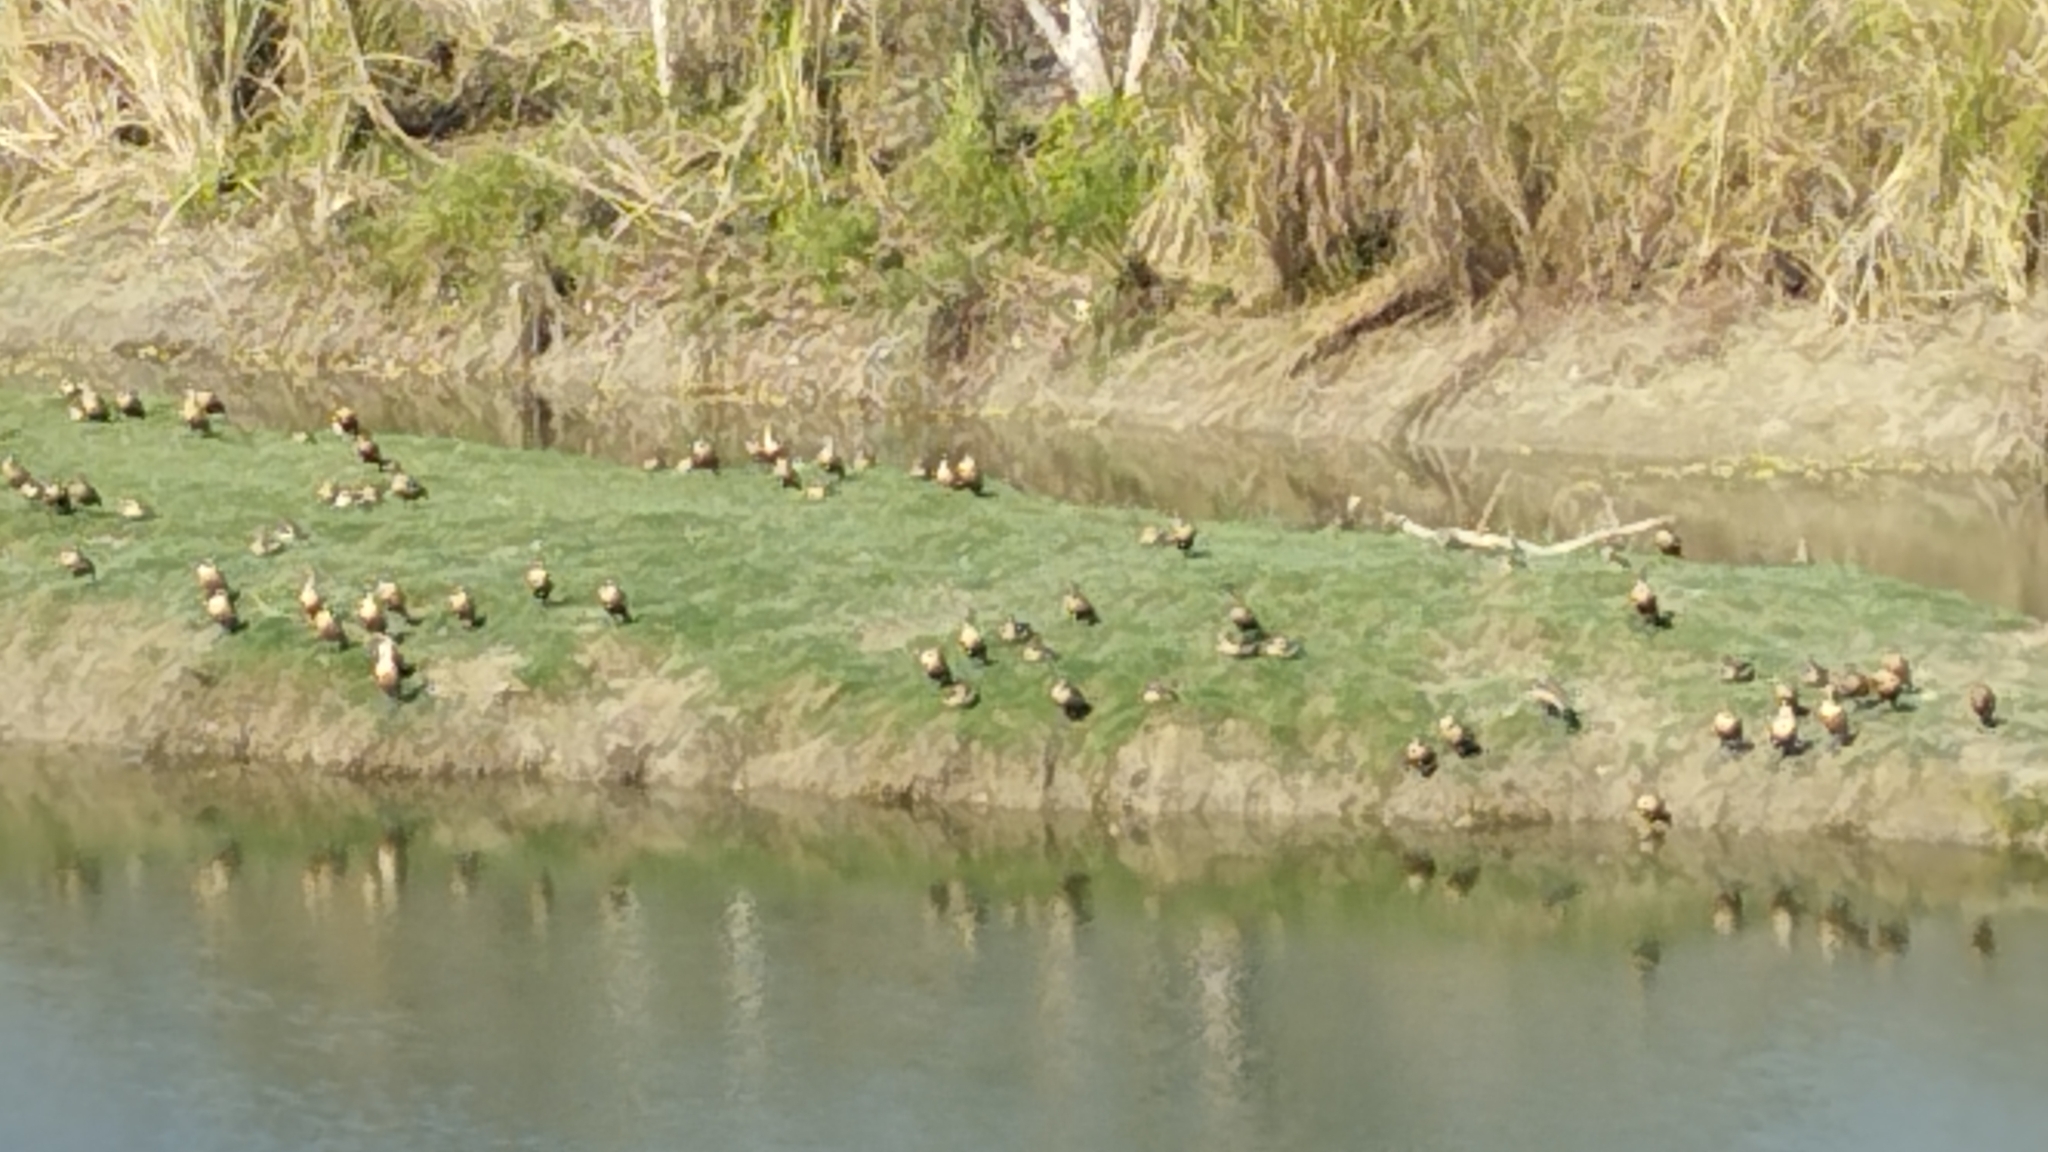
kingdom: Animalia
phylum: Chordata
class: Aves
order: Anseriformes
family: Anatidae
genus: Dendrocygna
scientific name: Dendrocygna javanica
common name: Lesser whistling-duck
